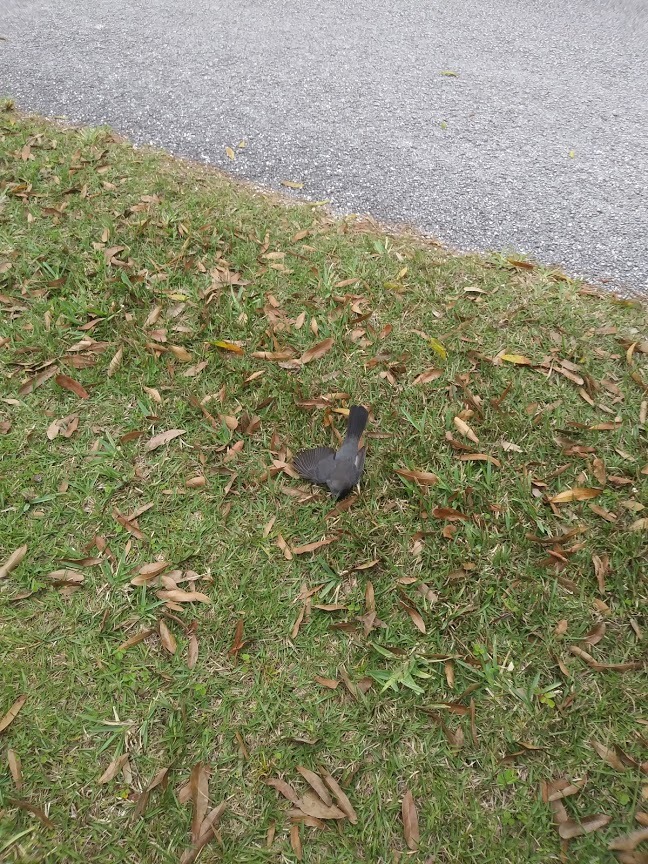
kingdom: Animalia
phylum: Chordata
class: Aves
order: Passeriformes
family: Mimidae
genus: Dumetella
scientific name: Dumetella carolinensis
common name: Gray catbird
